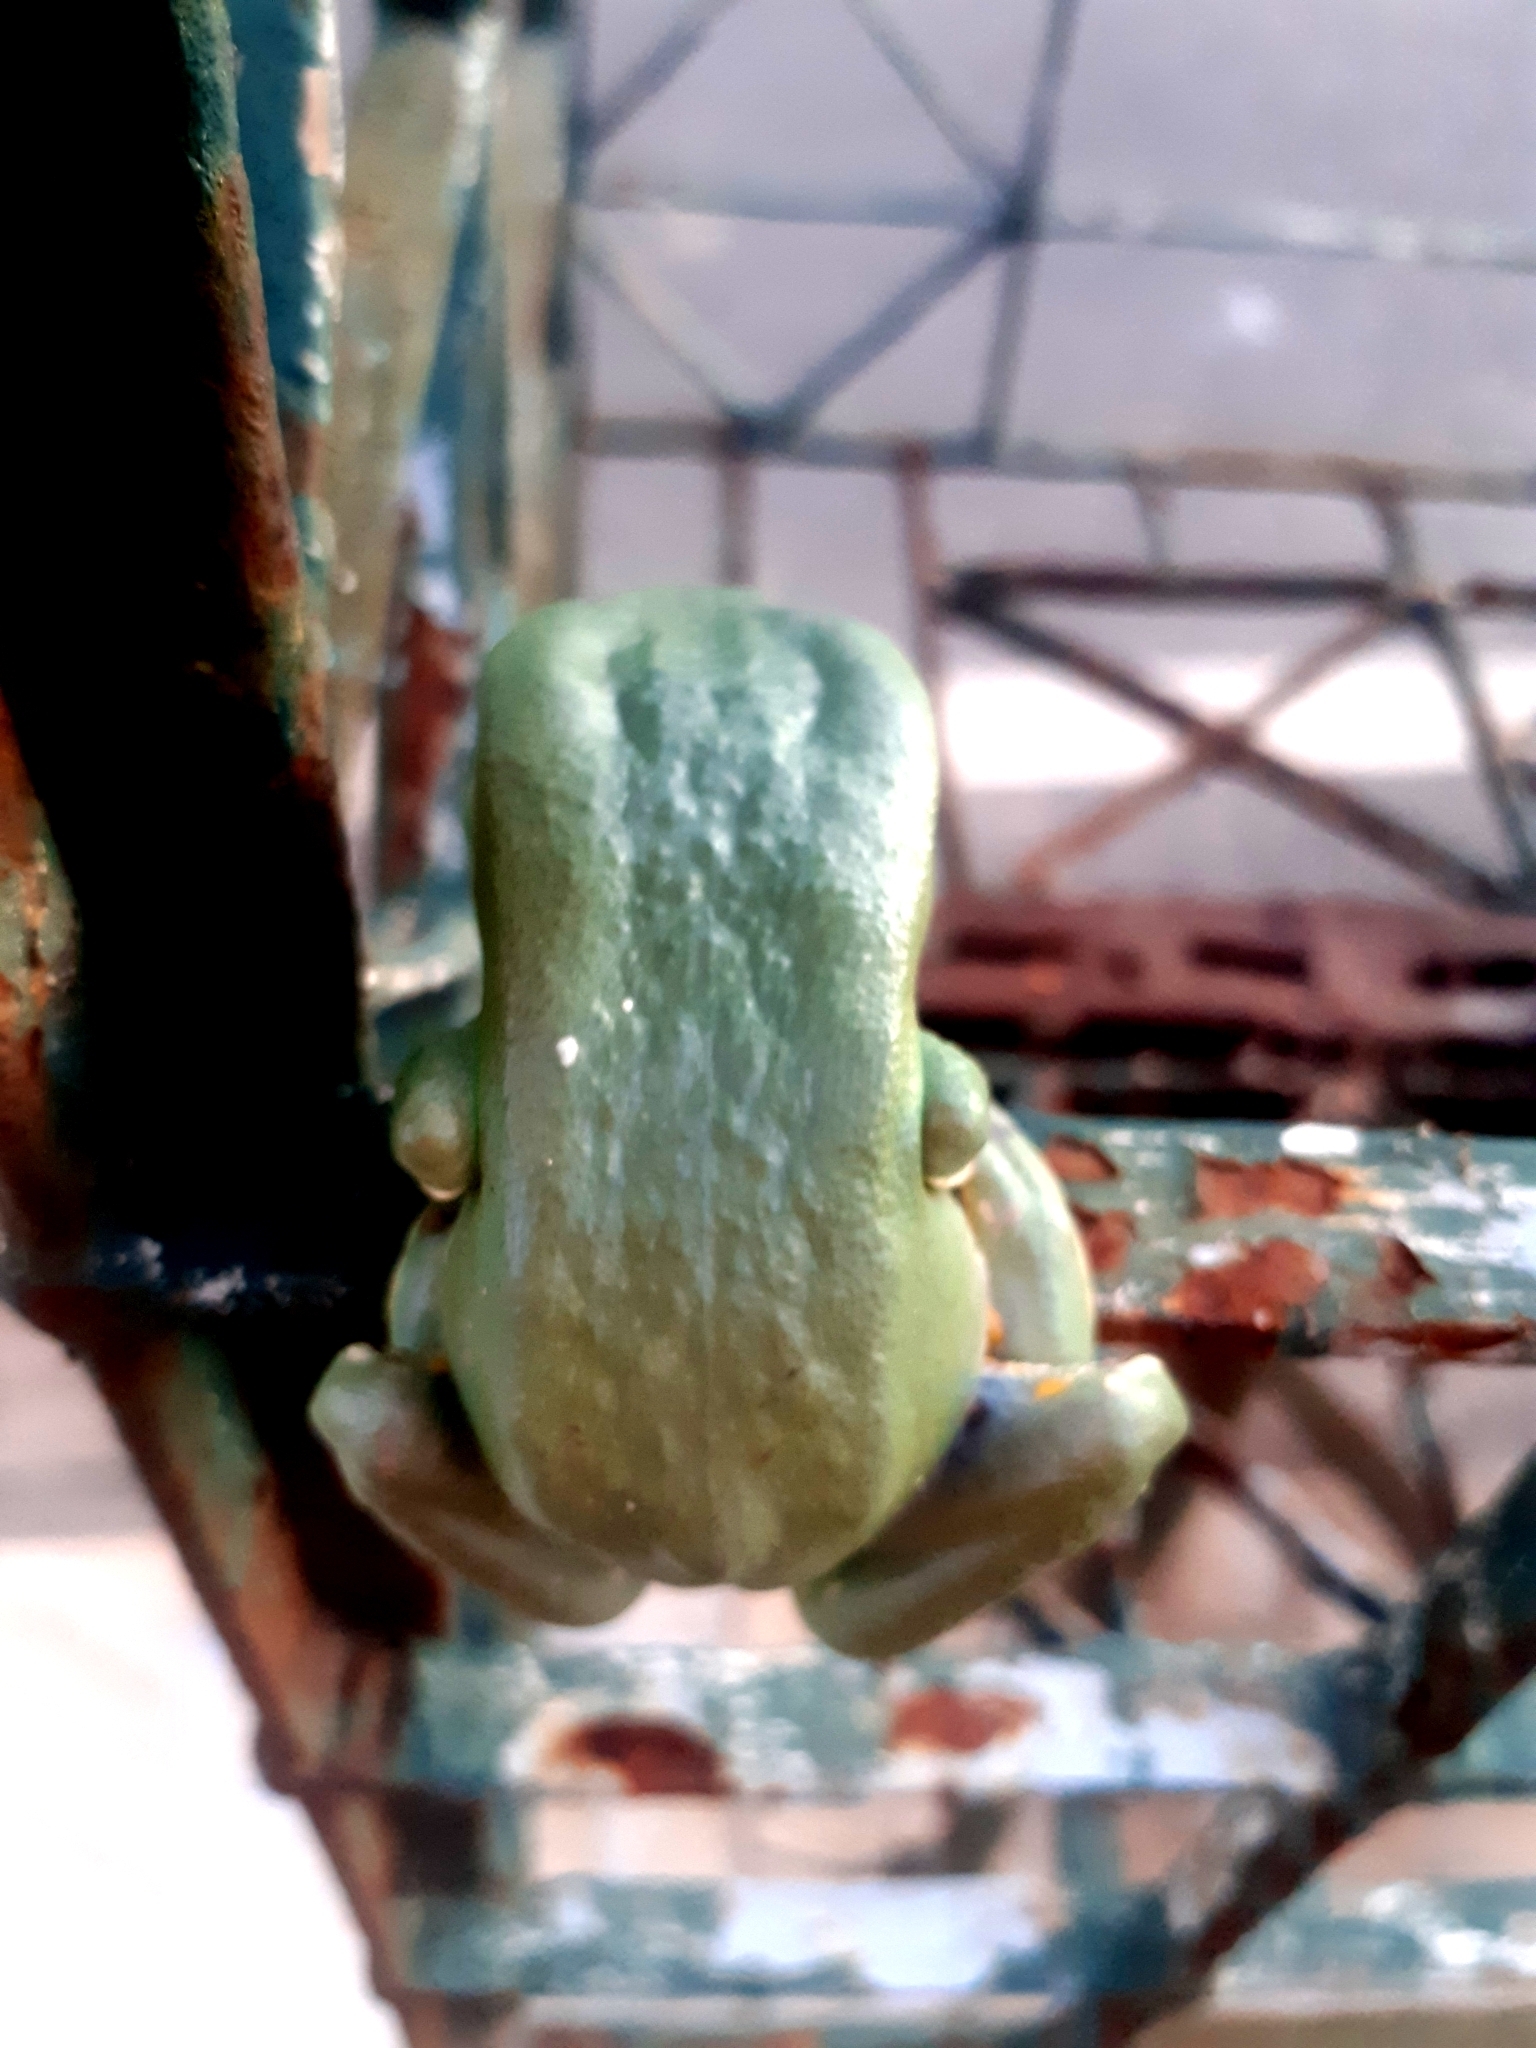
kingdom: Animalia
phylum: Chordata
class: Amphibia
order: Anura
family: Phyllomedusidae
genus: Phyllomedusa
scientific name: Phyllomedusa bahiana
